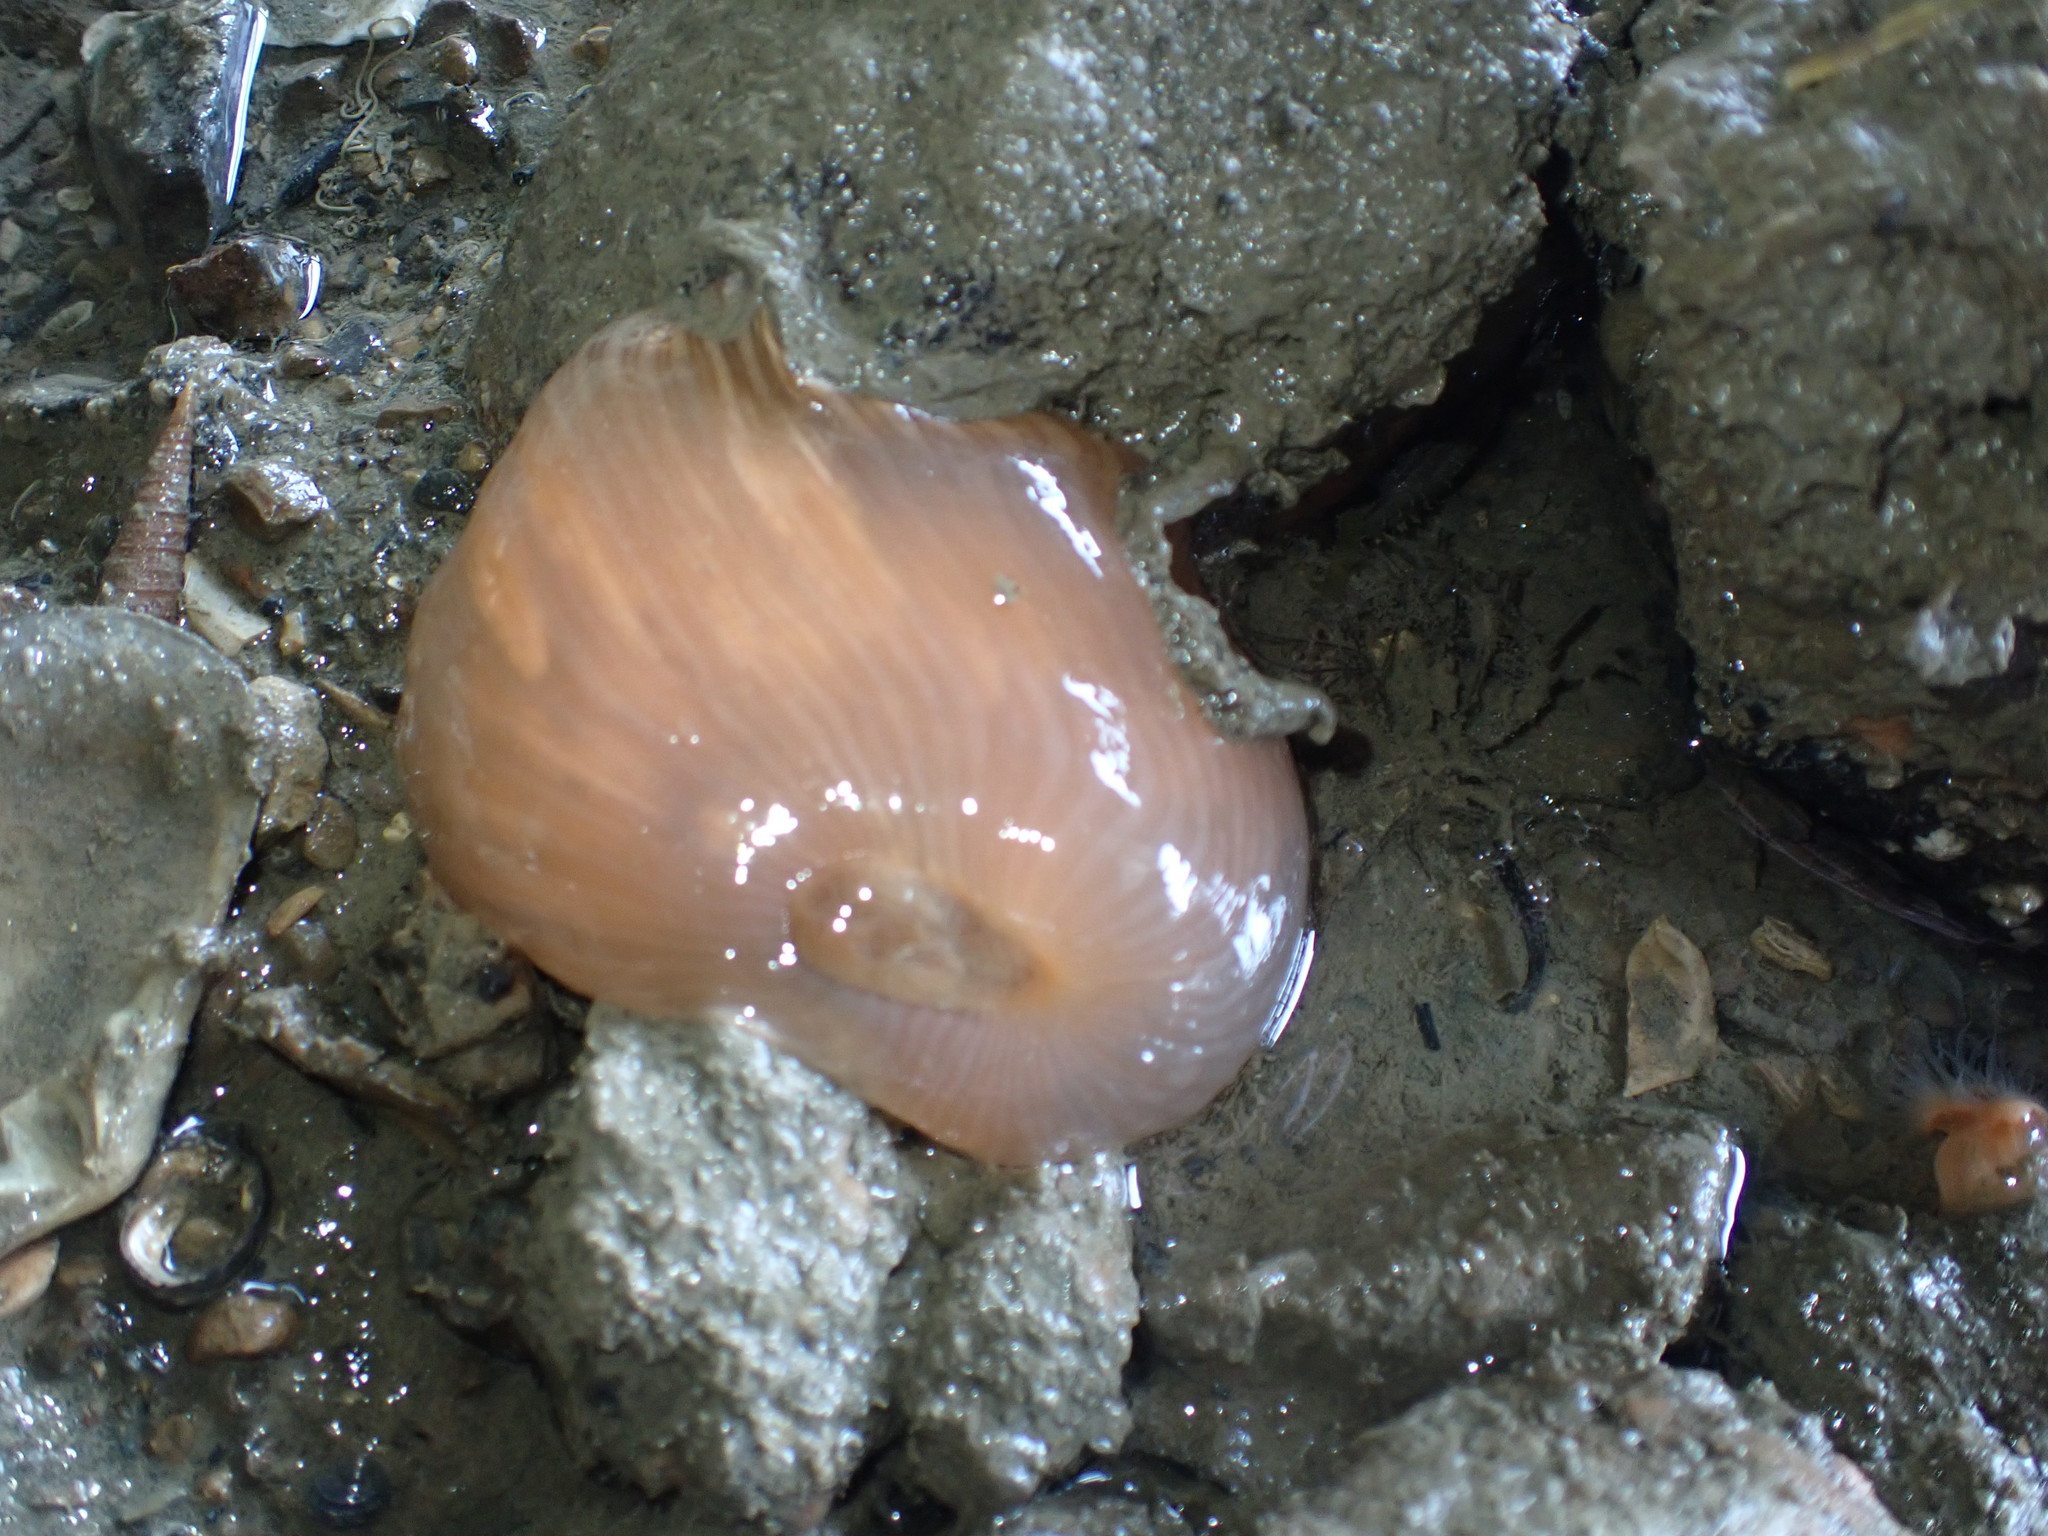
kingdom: Animalia
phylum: Cnidaria
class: Anthozoa
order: Actiniaria
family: Diadumenidae
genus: Diadumene
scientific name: Diadumene neozelanica
